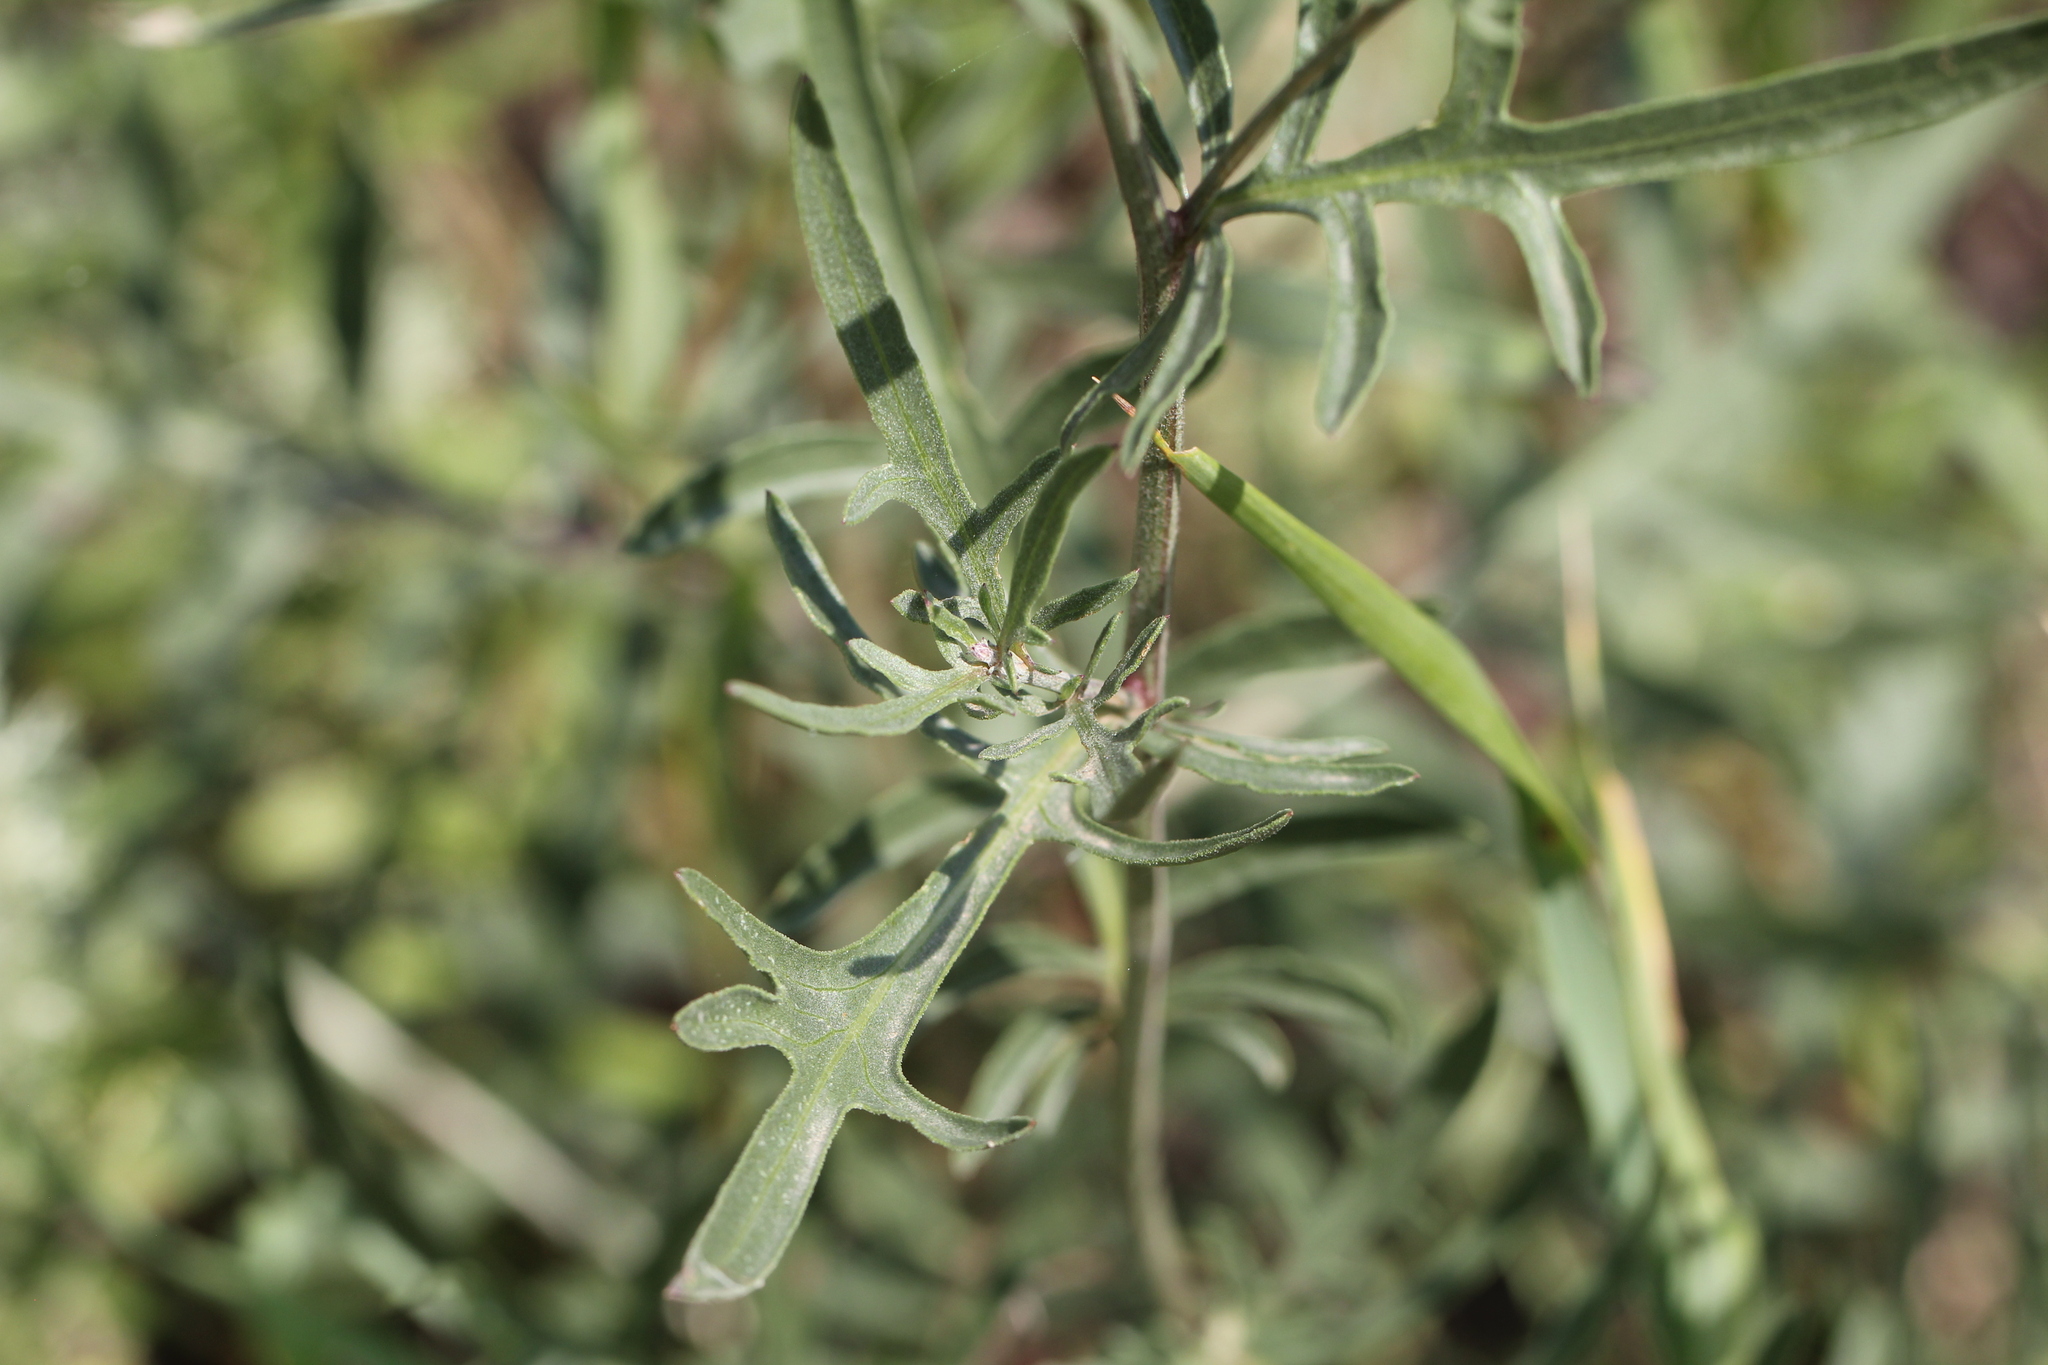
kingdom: Plantae
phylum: Tracheophyta
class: Magnoliopsida
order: Asterales
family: Asteraceae
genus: Centaurea
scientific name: Centaurea adpressa
